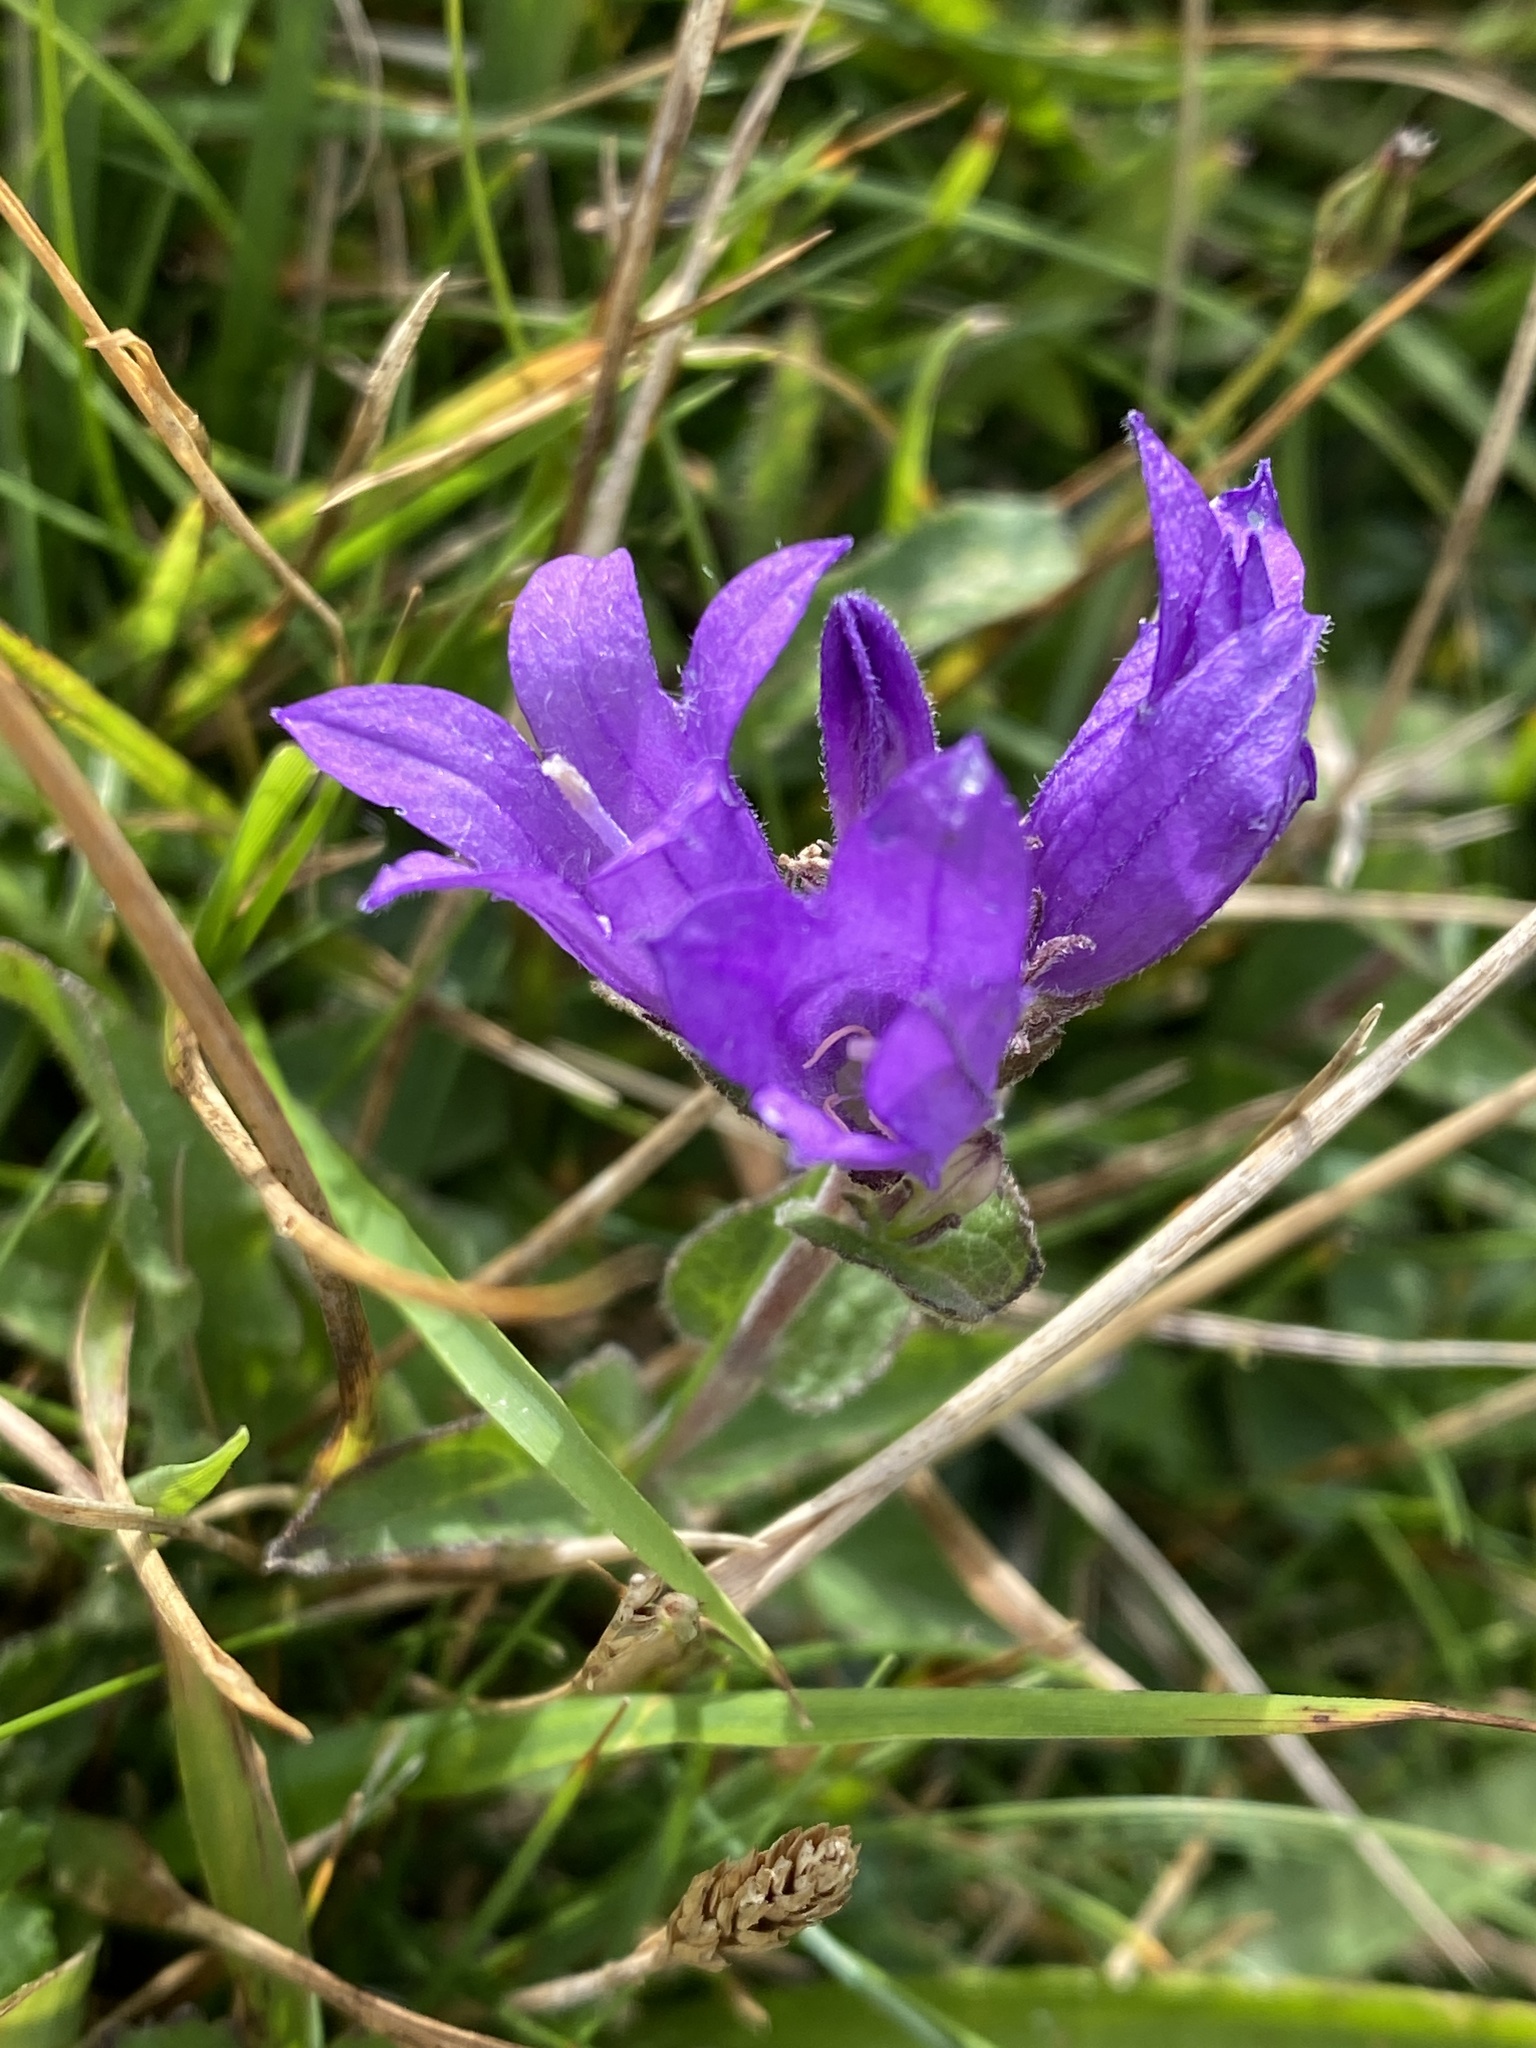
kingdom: Plantae
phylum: Tracheophyta
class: Magnoliopsida
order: Asterales
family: Campanulaceae
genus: Campanula
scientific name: Campanula glomerata
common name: Clustered bellflower
